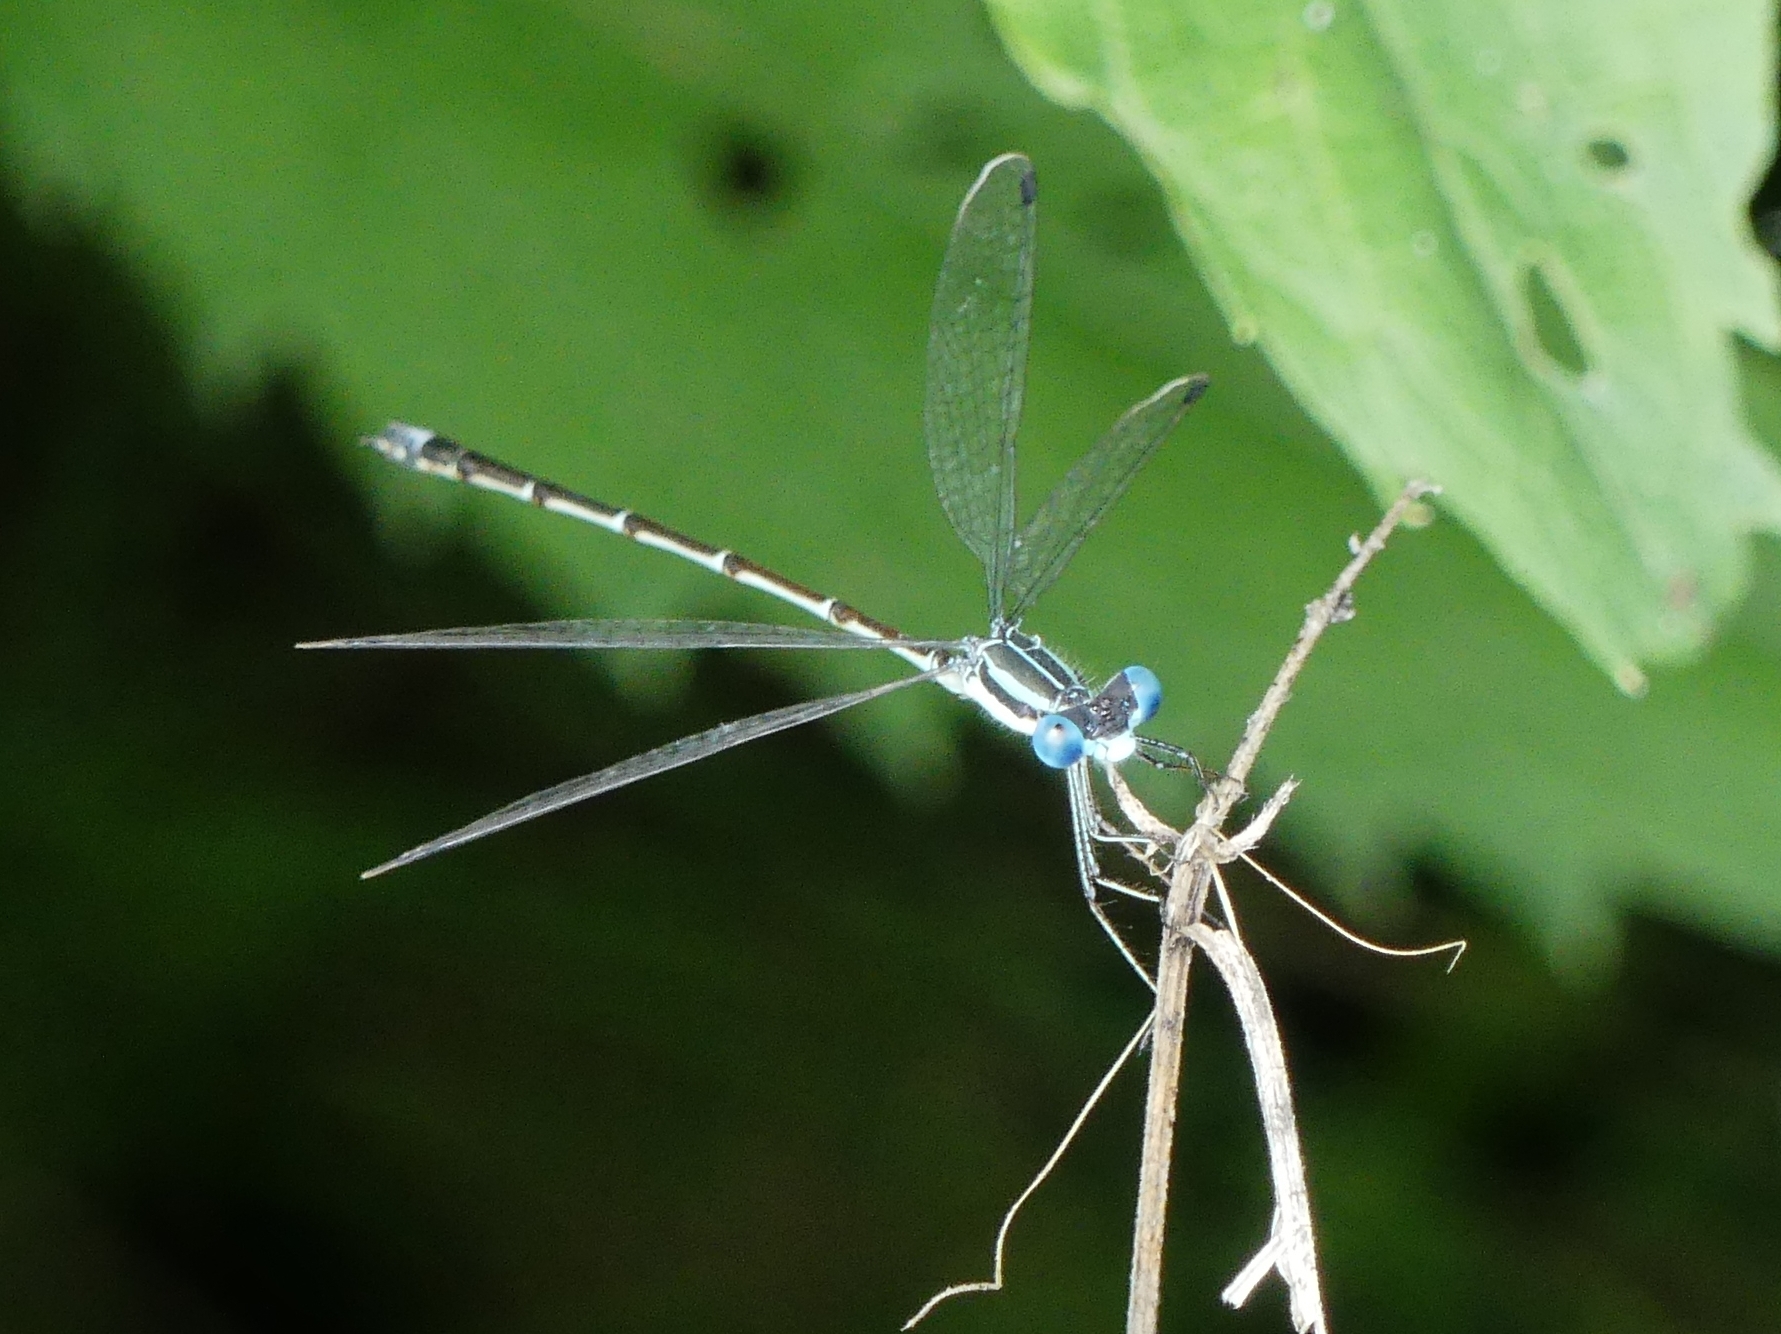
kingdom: Animalia
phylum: Arthropoda
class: Insecta
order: Odonata
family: Lestidae
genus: Lestes
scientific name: Lestes rectangularis
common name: Slender spreadwing
